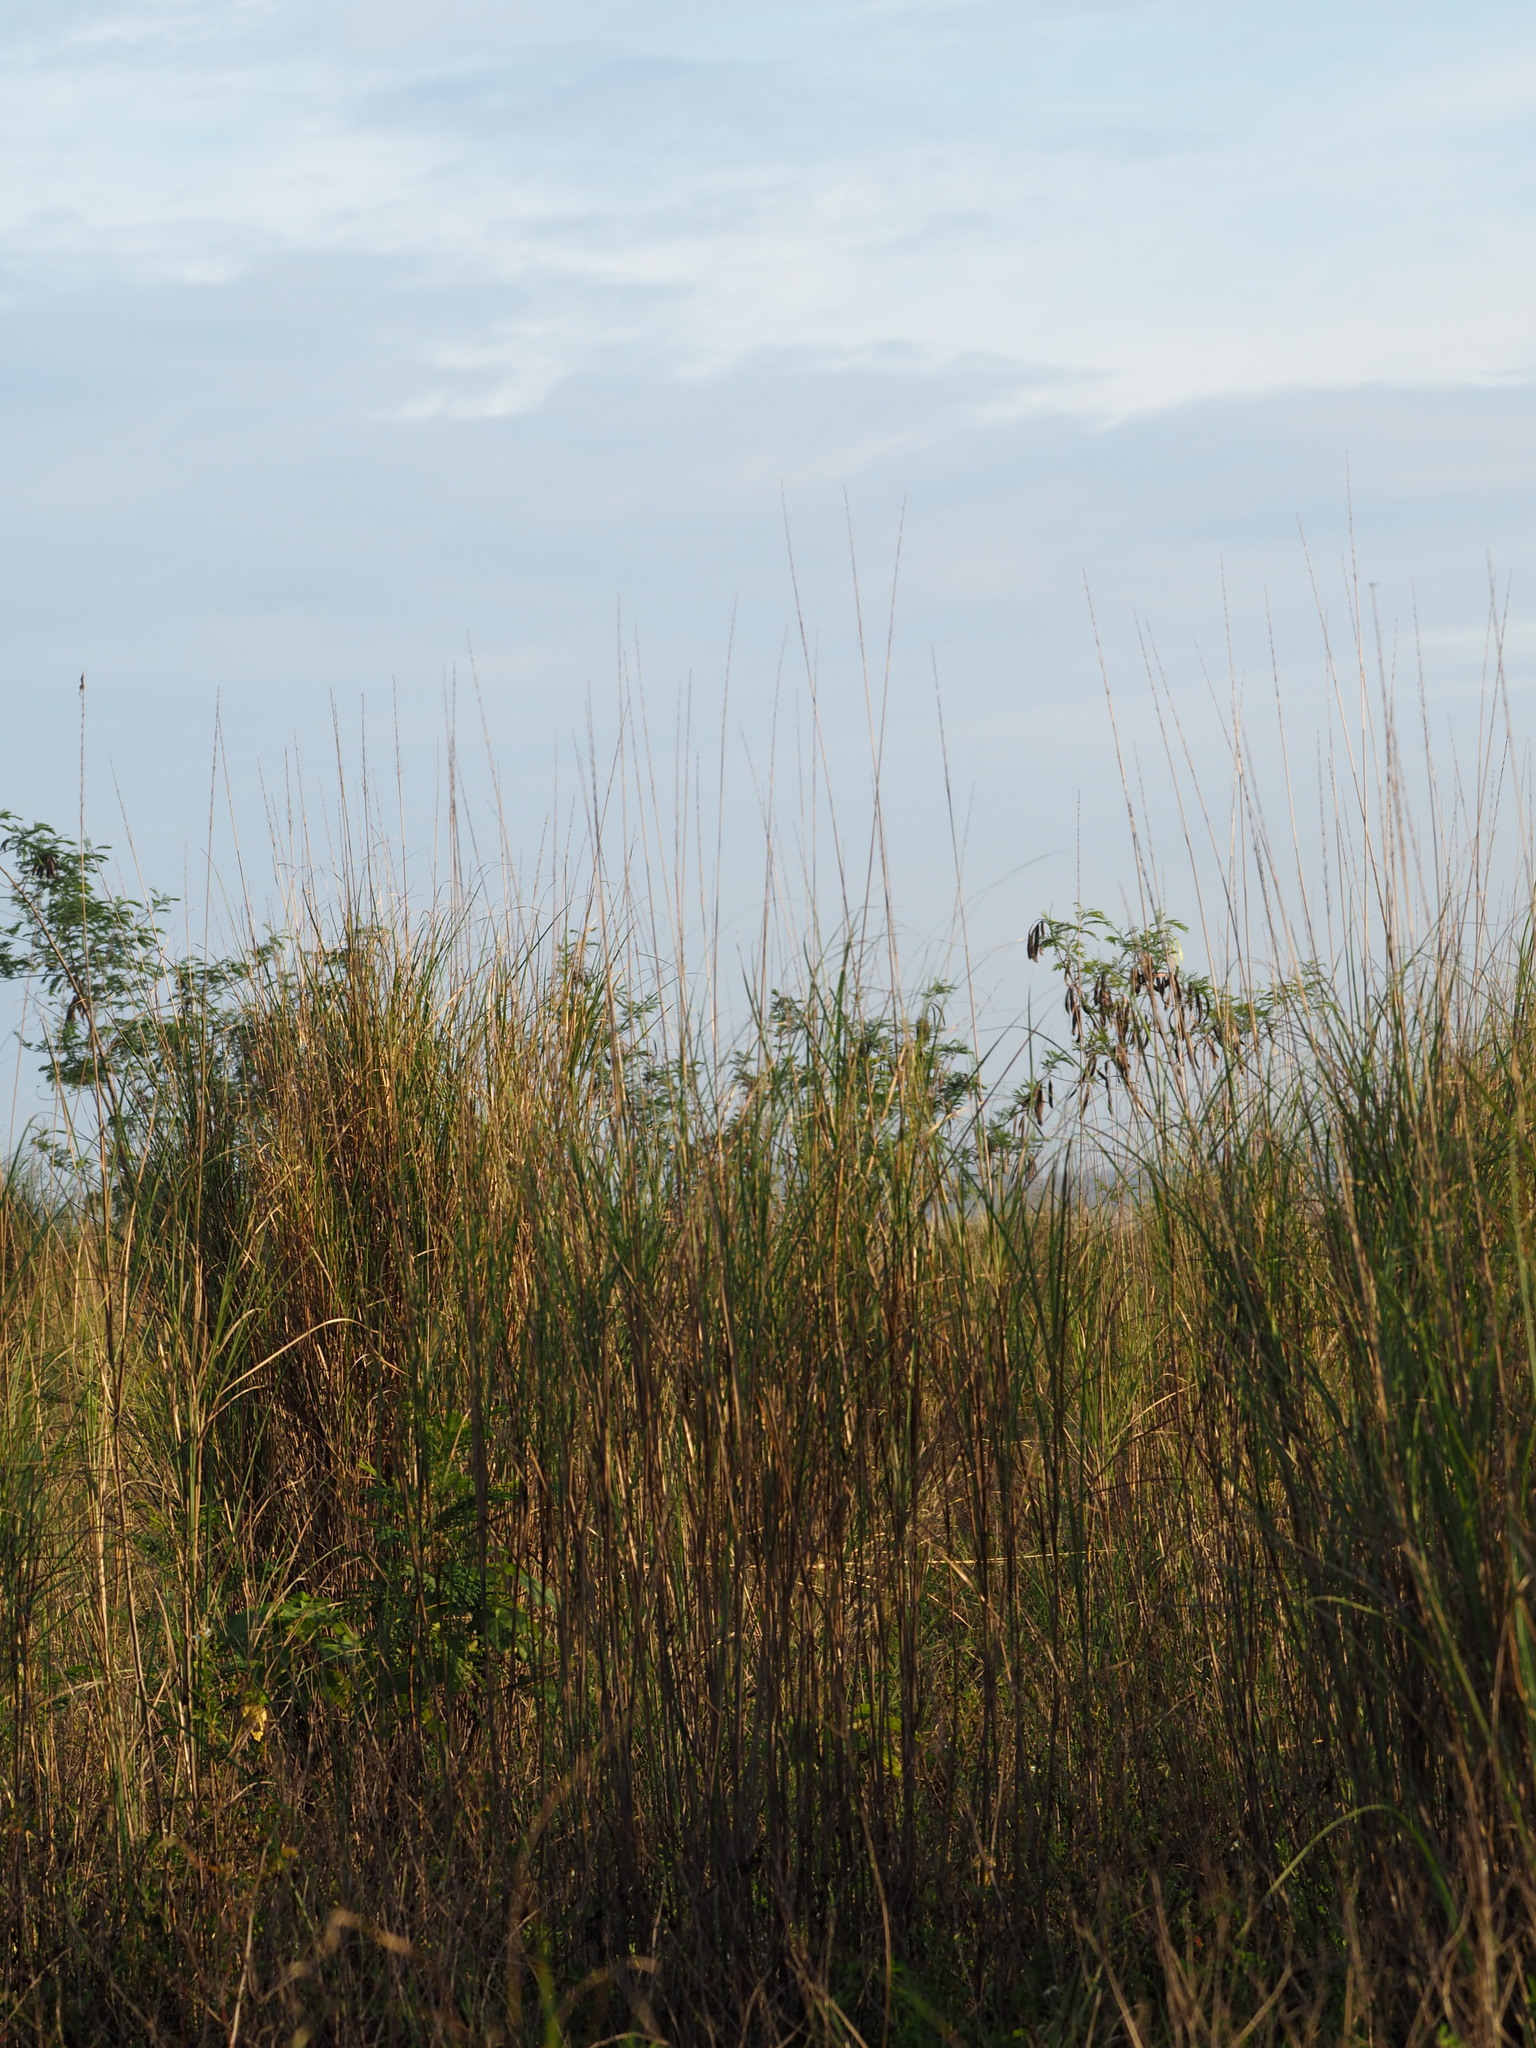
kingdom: Plantae
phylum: Tracheophyta
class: Liliopsida
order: Poales
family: Poaceae
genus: Saccharum
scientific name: Saccharum spontaneum
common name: Wild sugarcane
